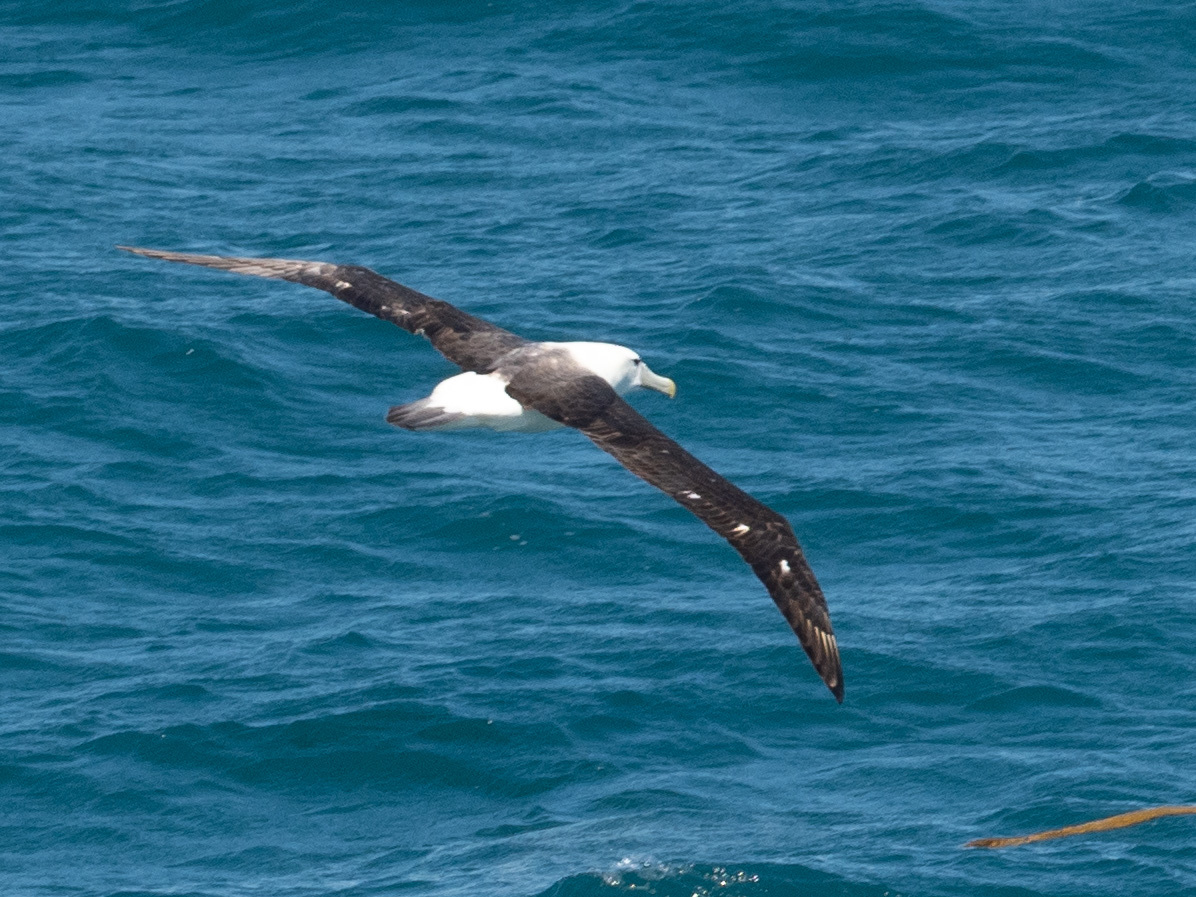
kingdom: Animalia
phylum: Chordata
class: Aves
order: Procellariiformes
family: Diomedeidae
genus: Thalassarche
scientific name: Thalassarche cauta
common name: Shy albatross
